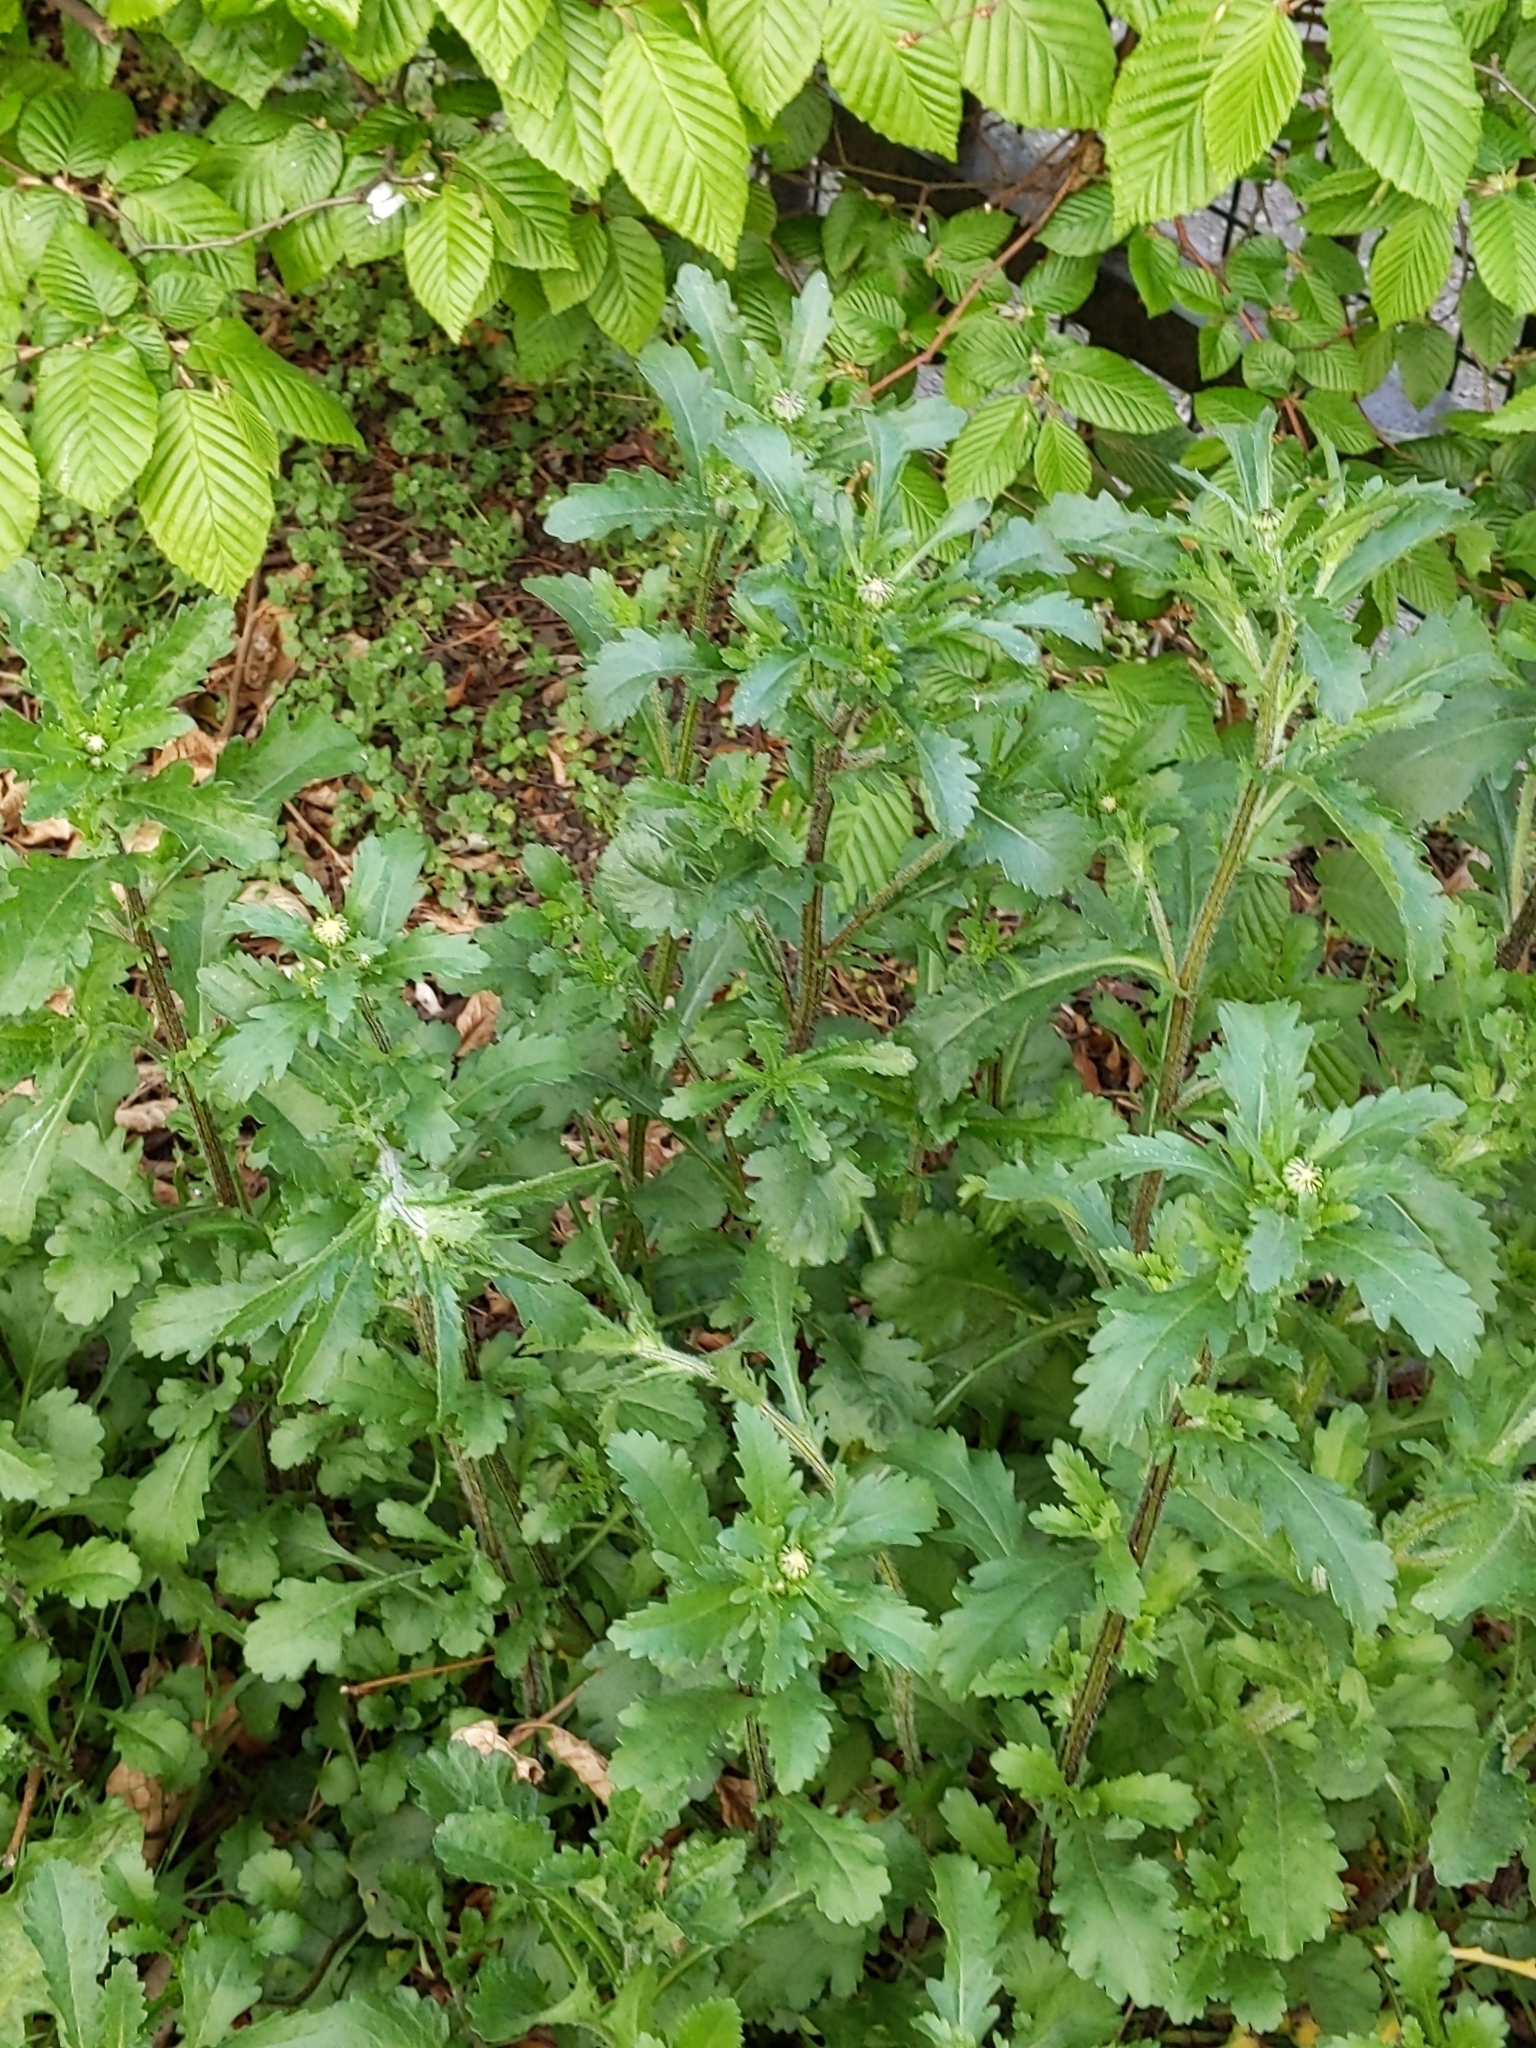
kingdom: Plantae
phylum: Tracheophyta
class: Magnoliopsida
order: Asterales
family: Asteraceae
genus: Leucanthemum
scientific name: Leucanthemum vulgare
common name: Oxeye daisy
